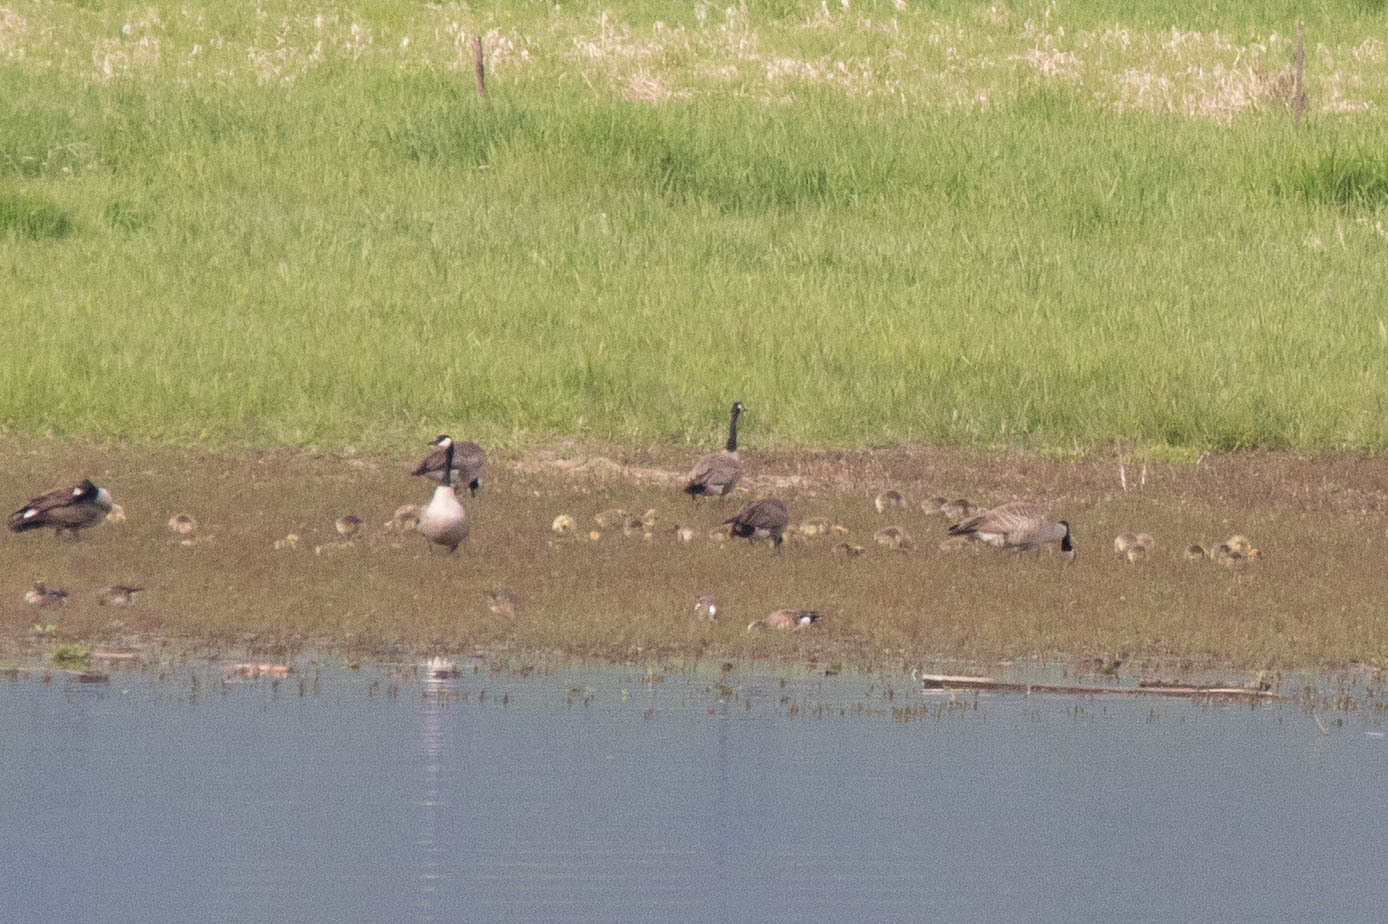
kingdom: Animalia
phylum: Chordata
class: Aves
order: Anseriformes
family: Anatidae
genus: Branta
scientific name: Branta canadensis
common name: Canada goose
